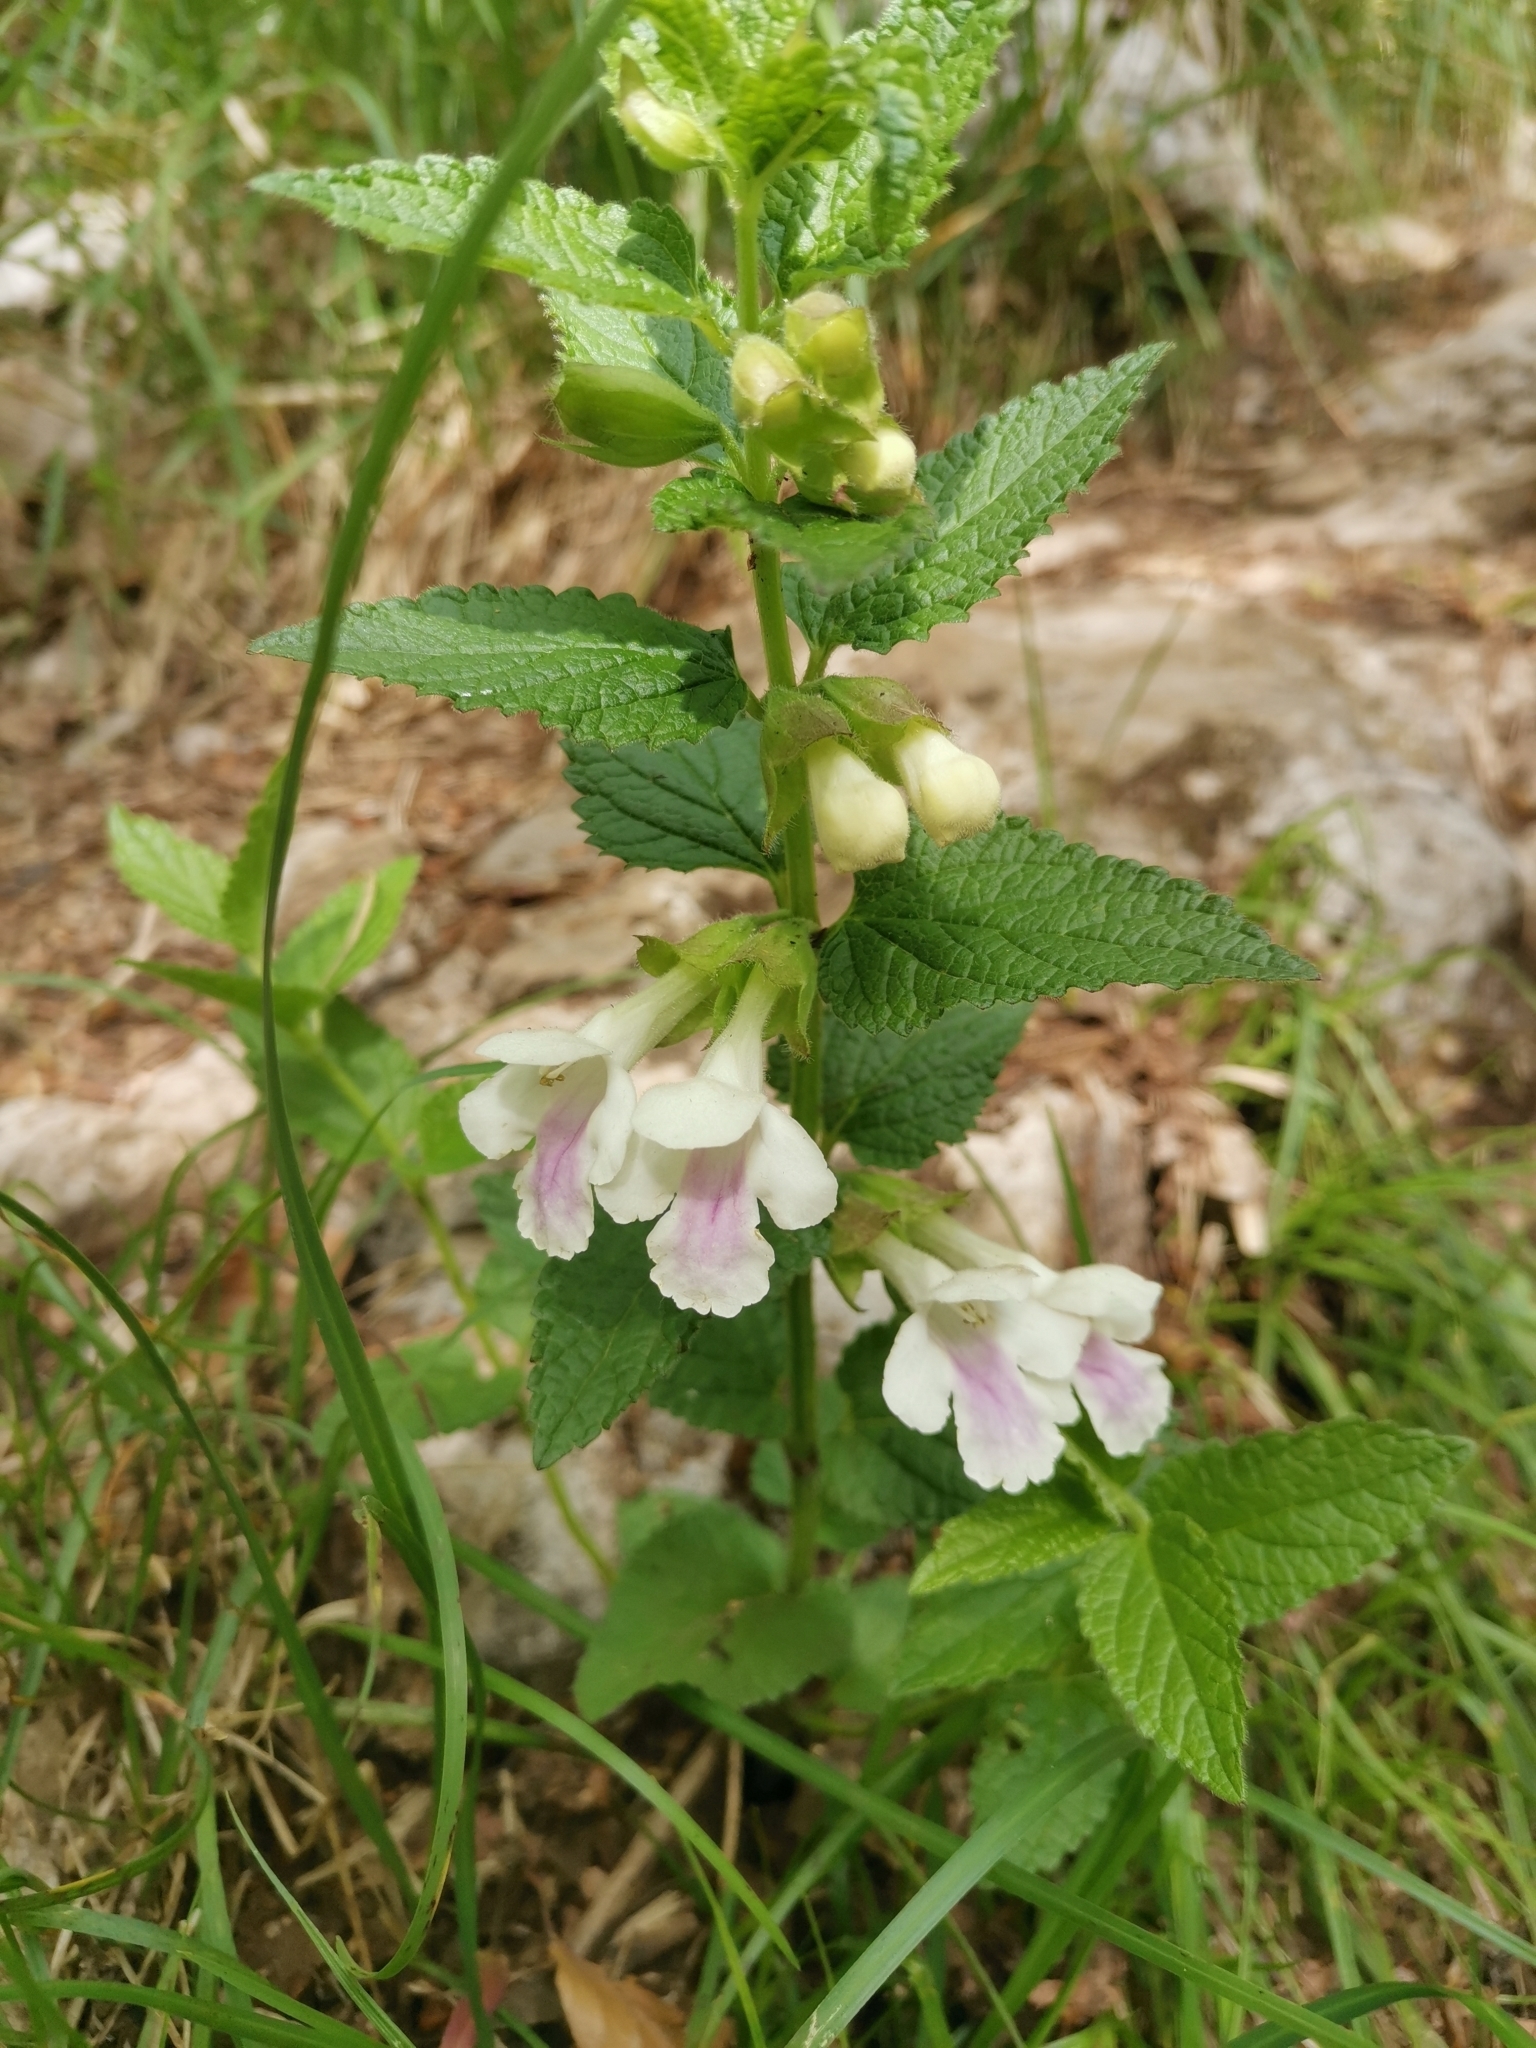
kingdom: Plantae
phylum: Tracheophyta
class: Magnoliopsida
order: Lamiales
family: Lamiaceae
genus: Melittis
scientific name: Melittis melissophyllum
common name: Bastard balm
